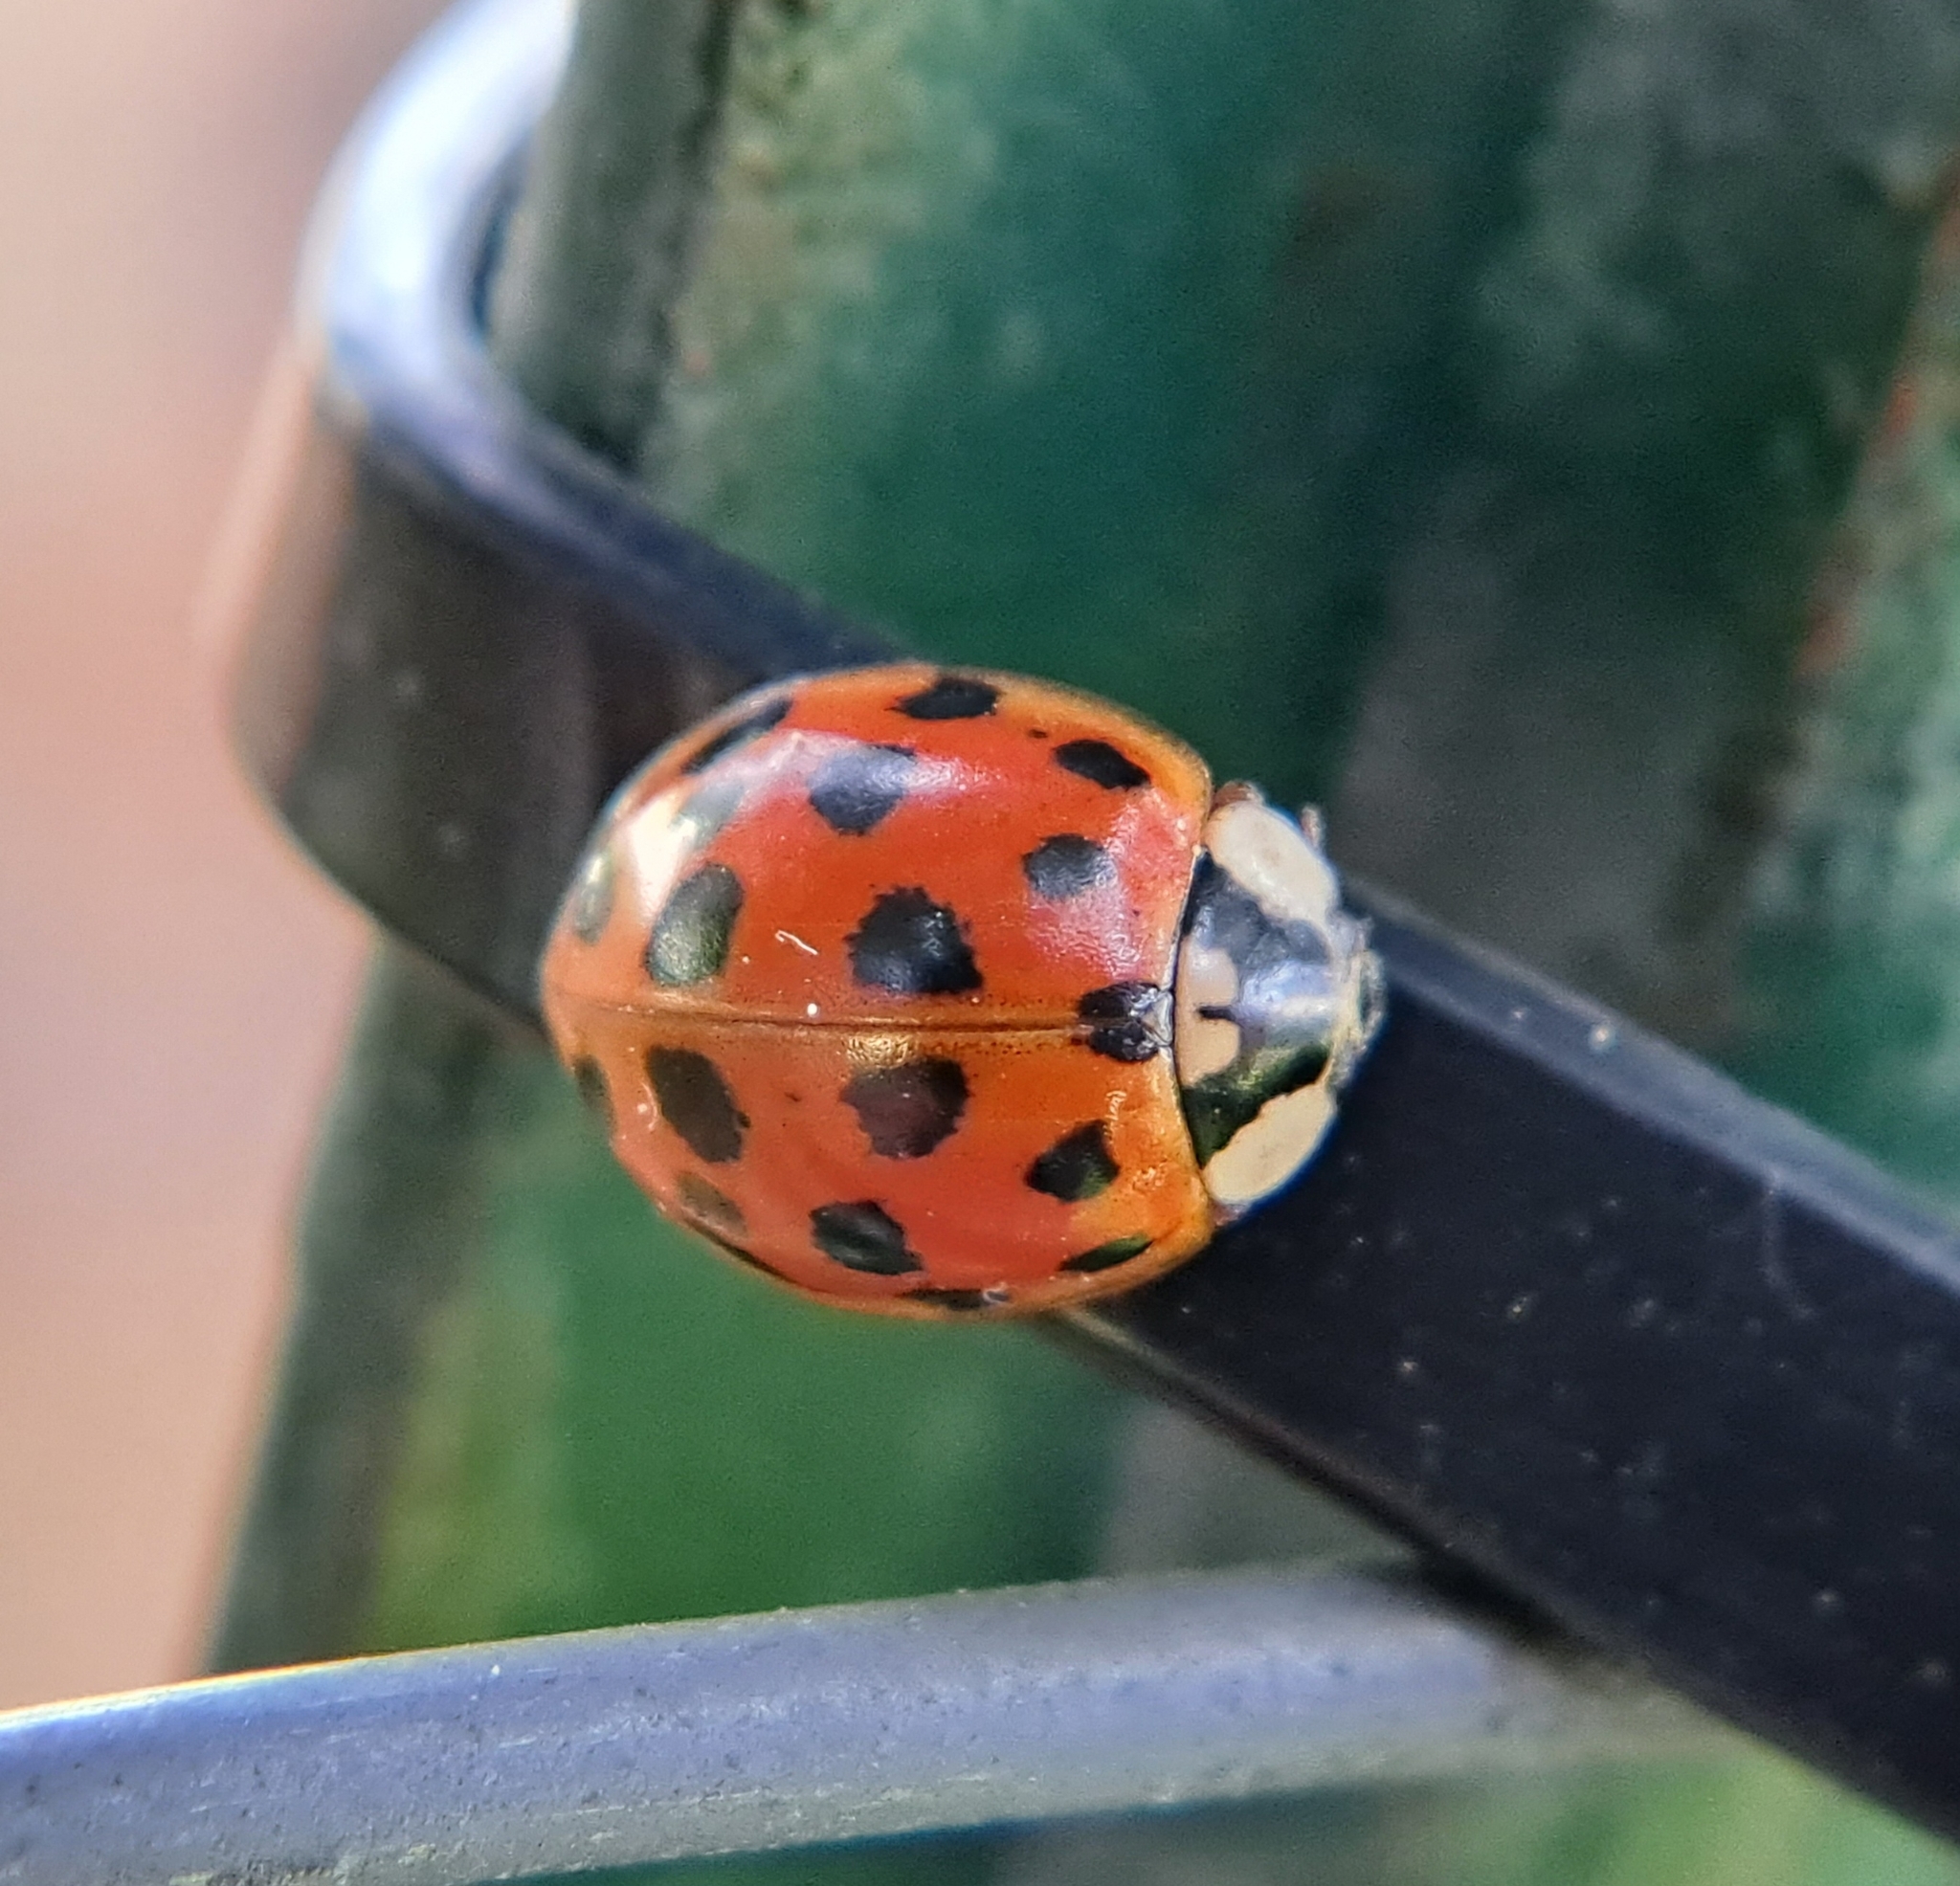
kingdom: Animalia
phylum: Arthropoda
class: Insecta
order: Coleoptera
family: Coccinellidae
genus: Harmonia
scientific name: Harmonia axyridis
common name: Harlequin ladybird
